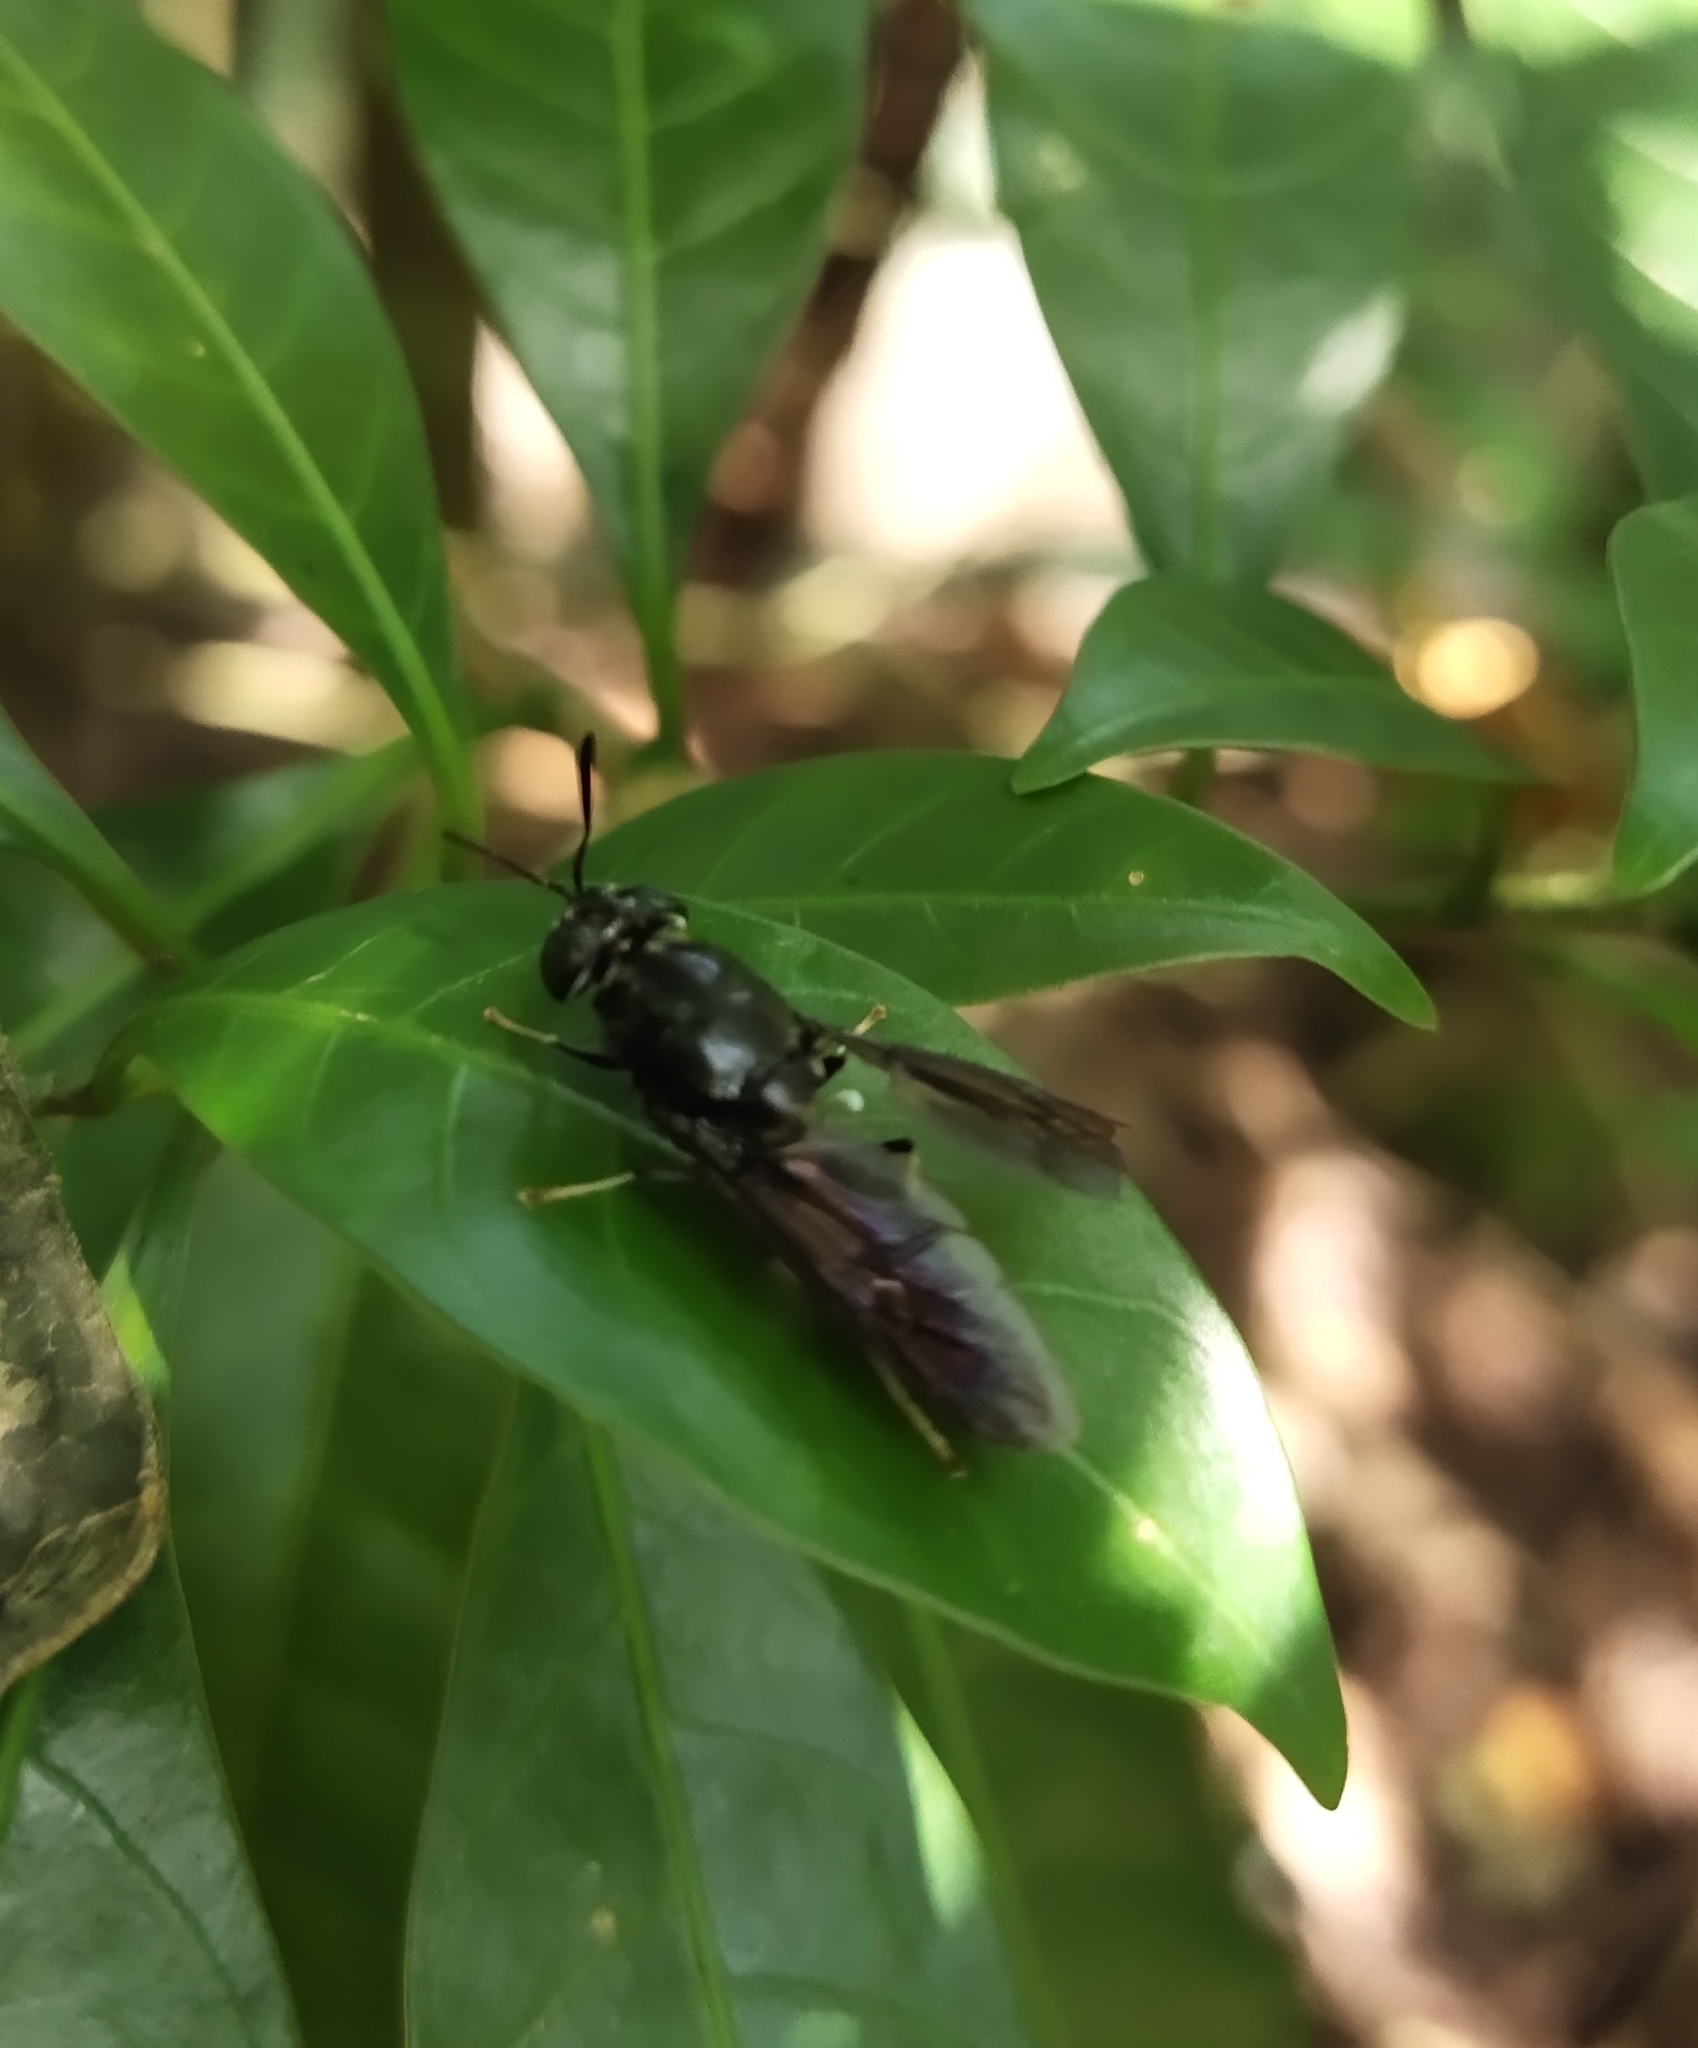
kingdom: Animalia
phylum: Arthropoda
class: Insecta
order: Diptera
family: Stratiomyidae
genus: Hermetia
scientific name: Hermetia illucens
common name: Black soldier fly
